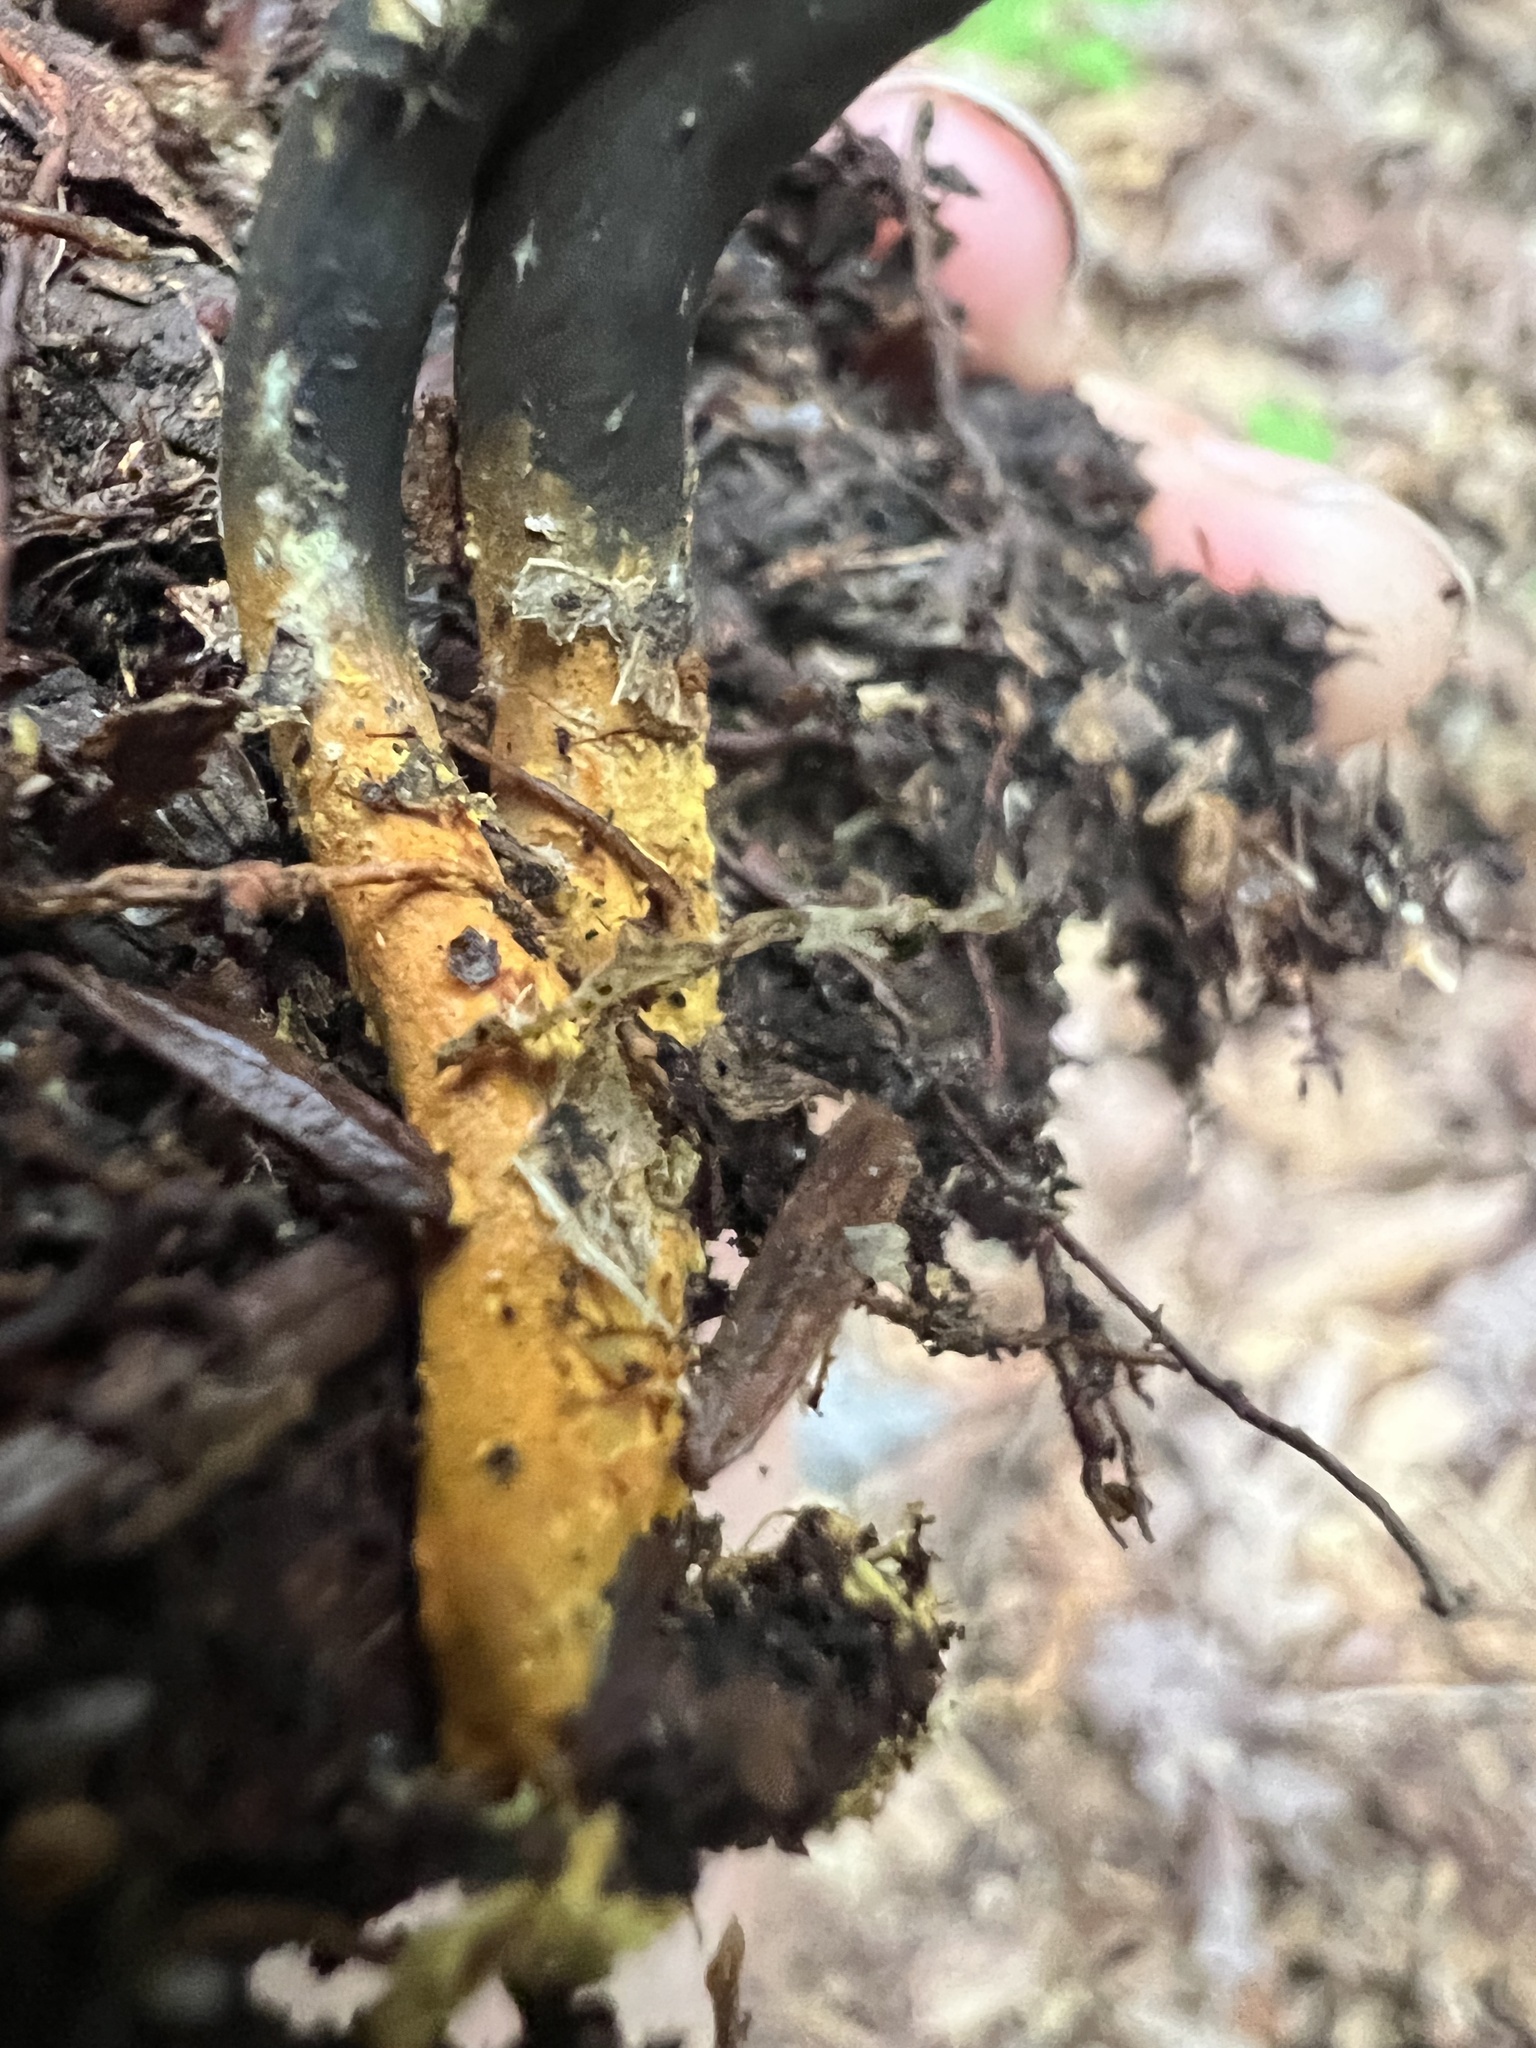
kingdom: Fungi
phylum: Ascomycota
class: Sordariomycetes
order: Hypocreales
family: Ophiocordycipitaceae
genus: Tolypocladium
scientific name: Tolypocladium ophioglossoides
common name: Snaketongue truffleclub
